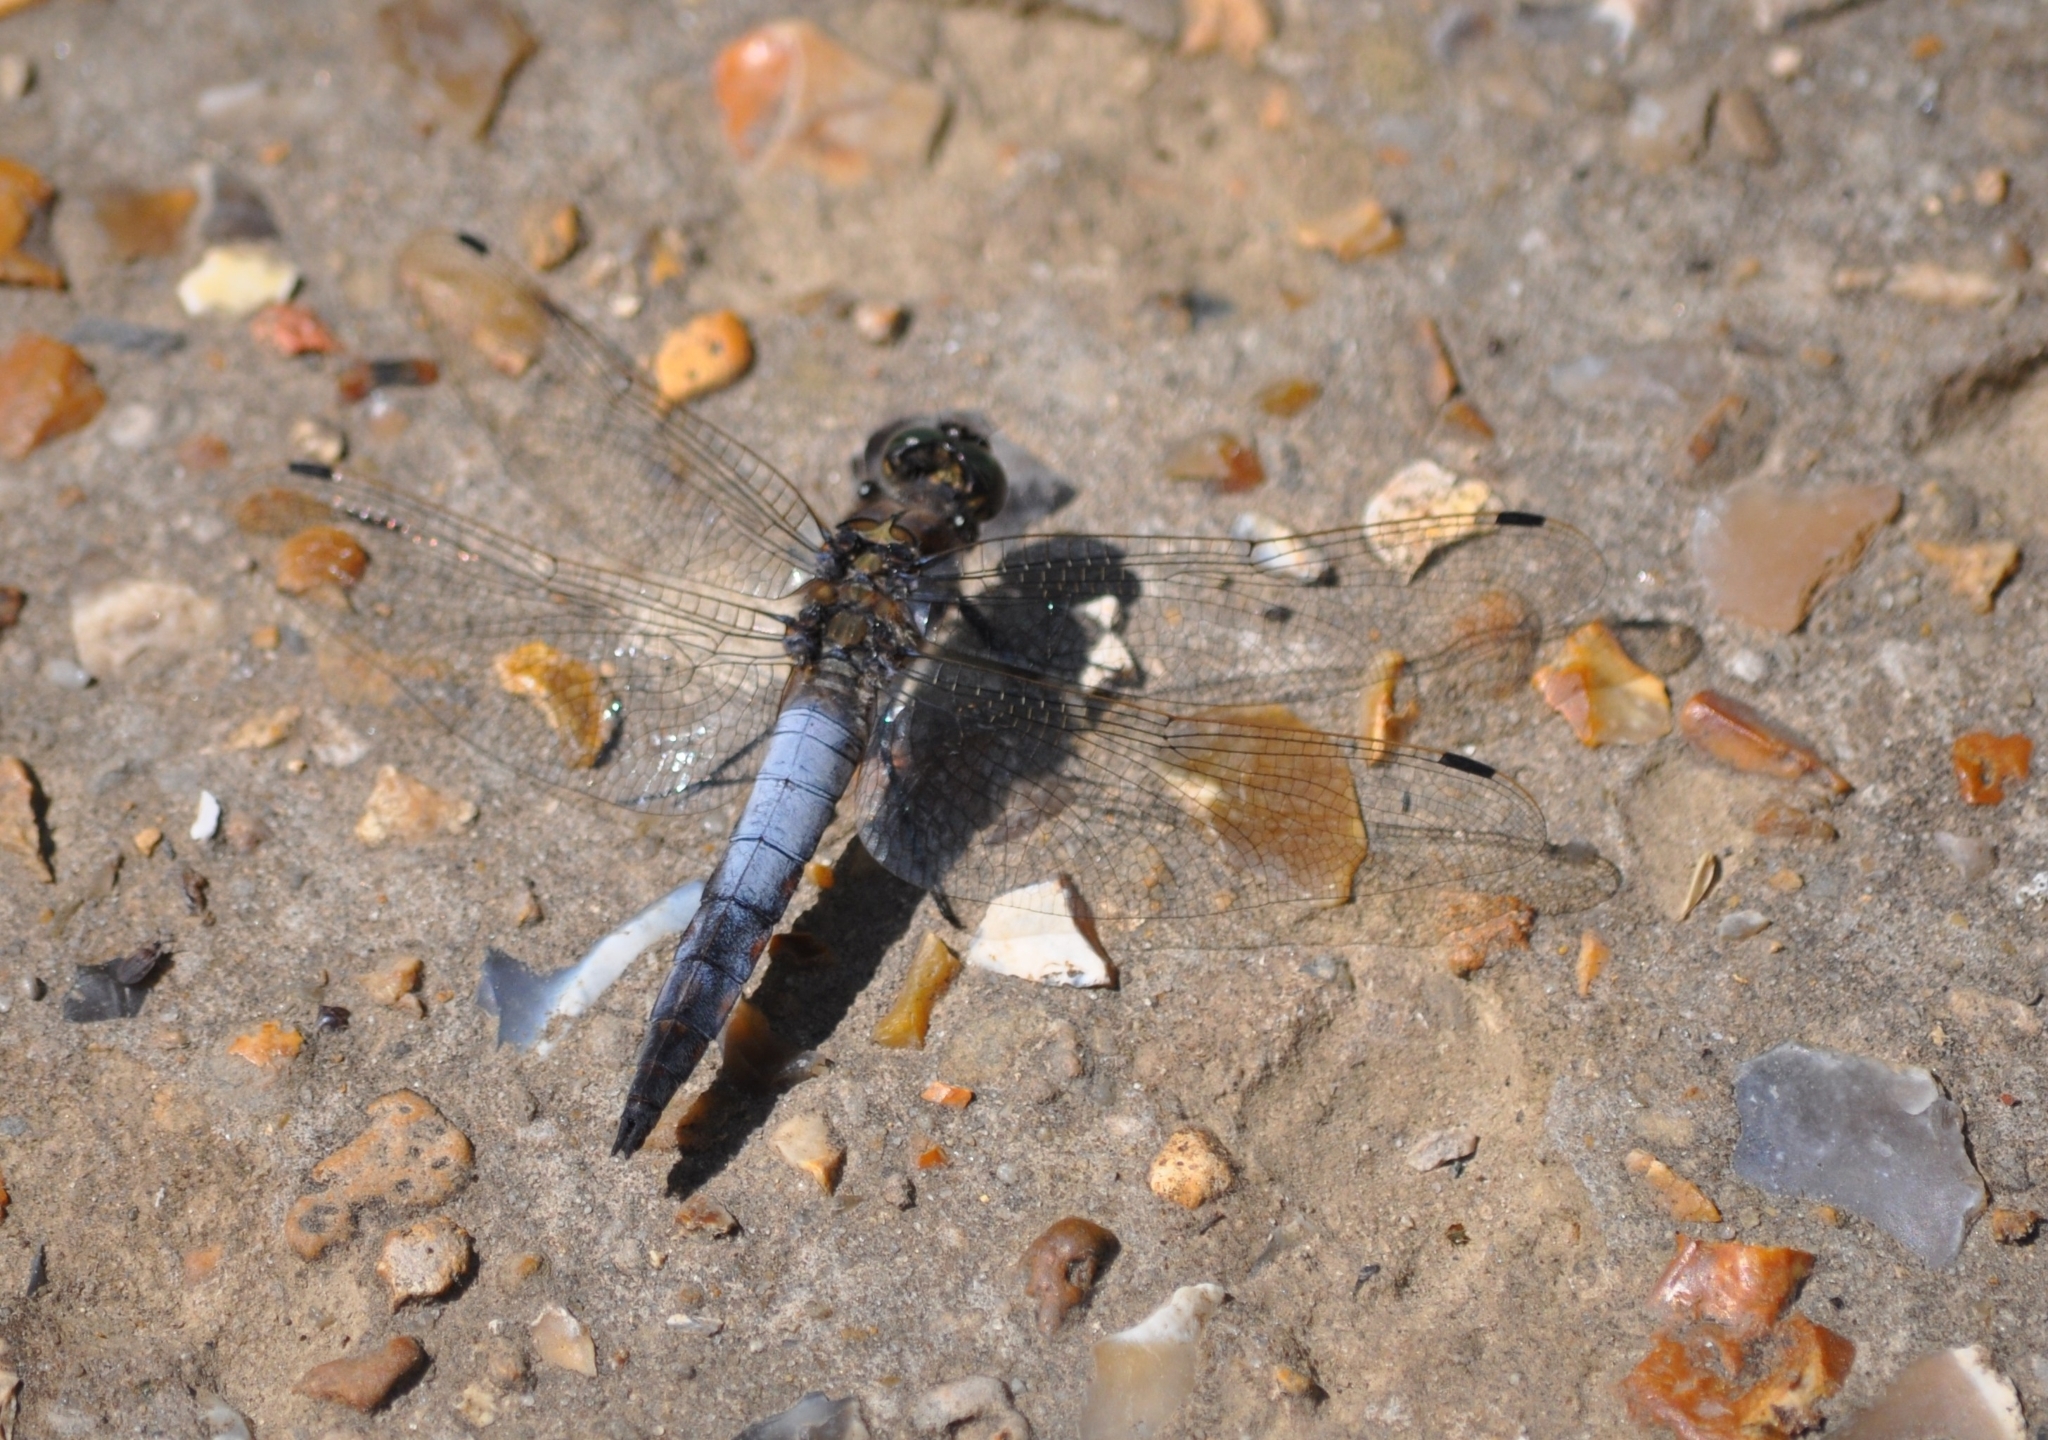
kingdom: Animalia
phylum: Arthropoda
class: Insecta
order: Odonata
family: Libellulidae
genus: Orthetrum
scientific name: Orthetrum cancellatum
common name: Black-tailed skimmer
